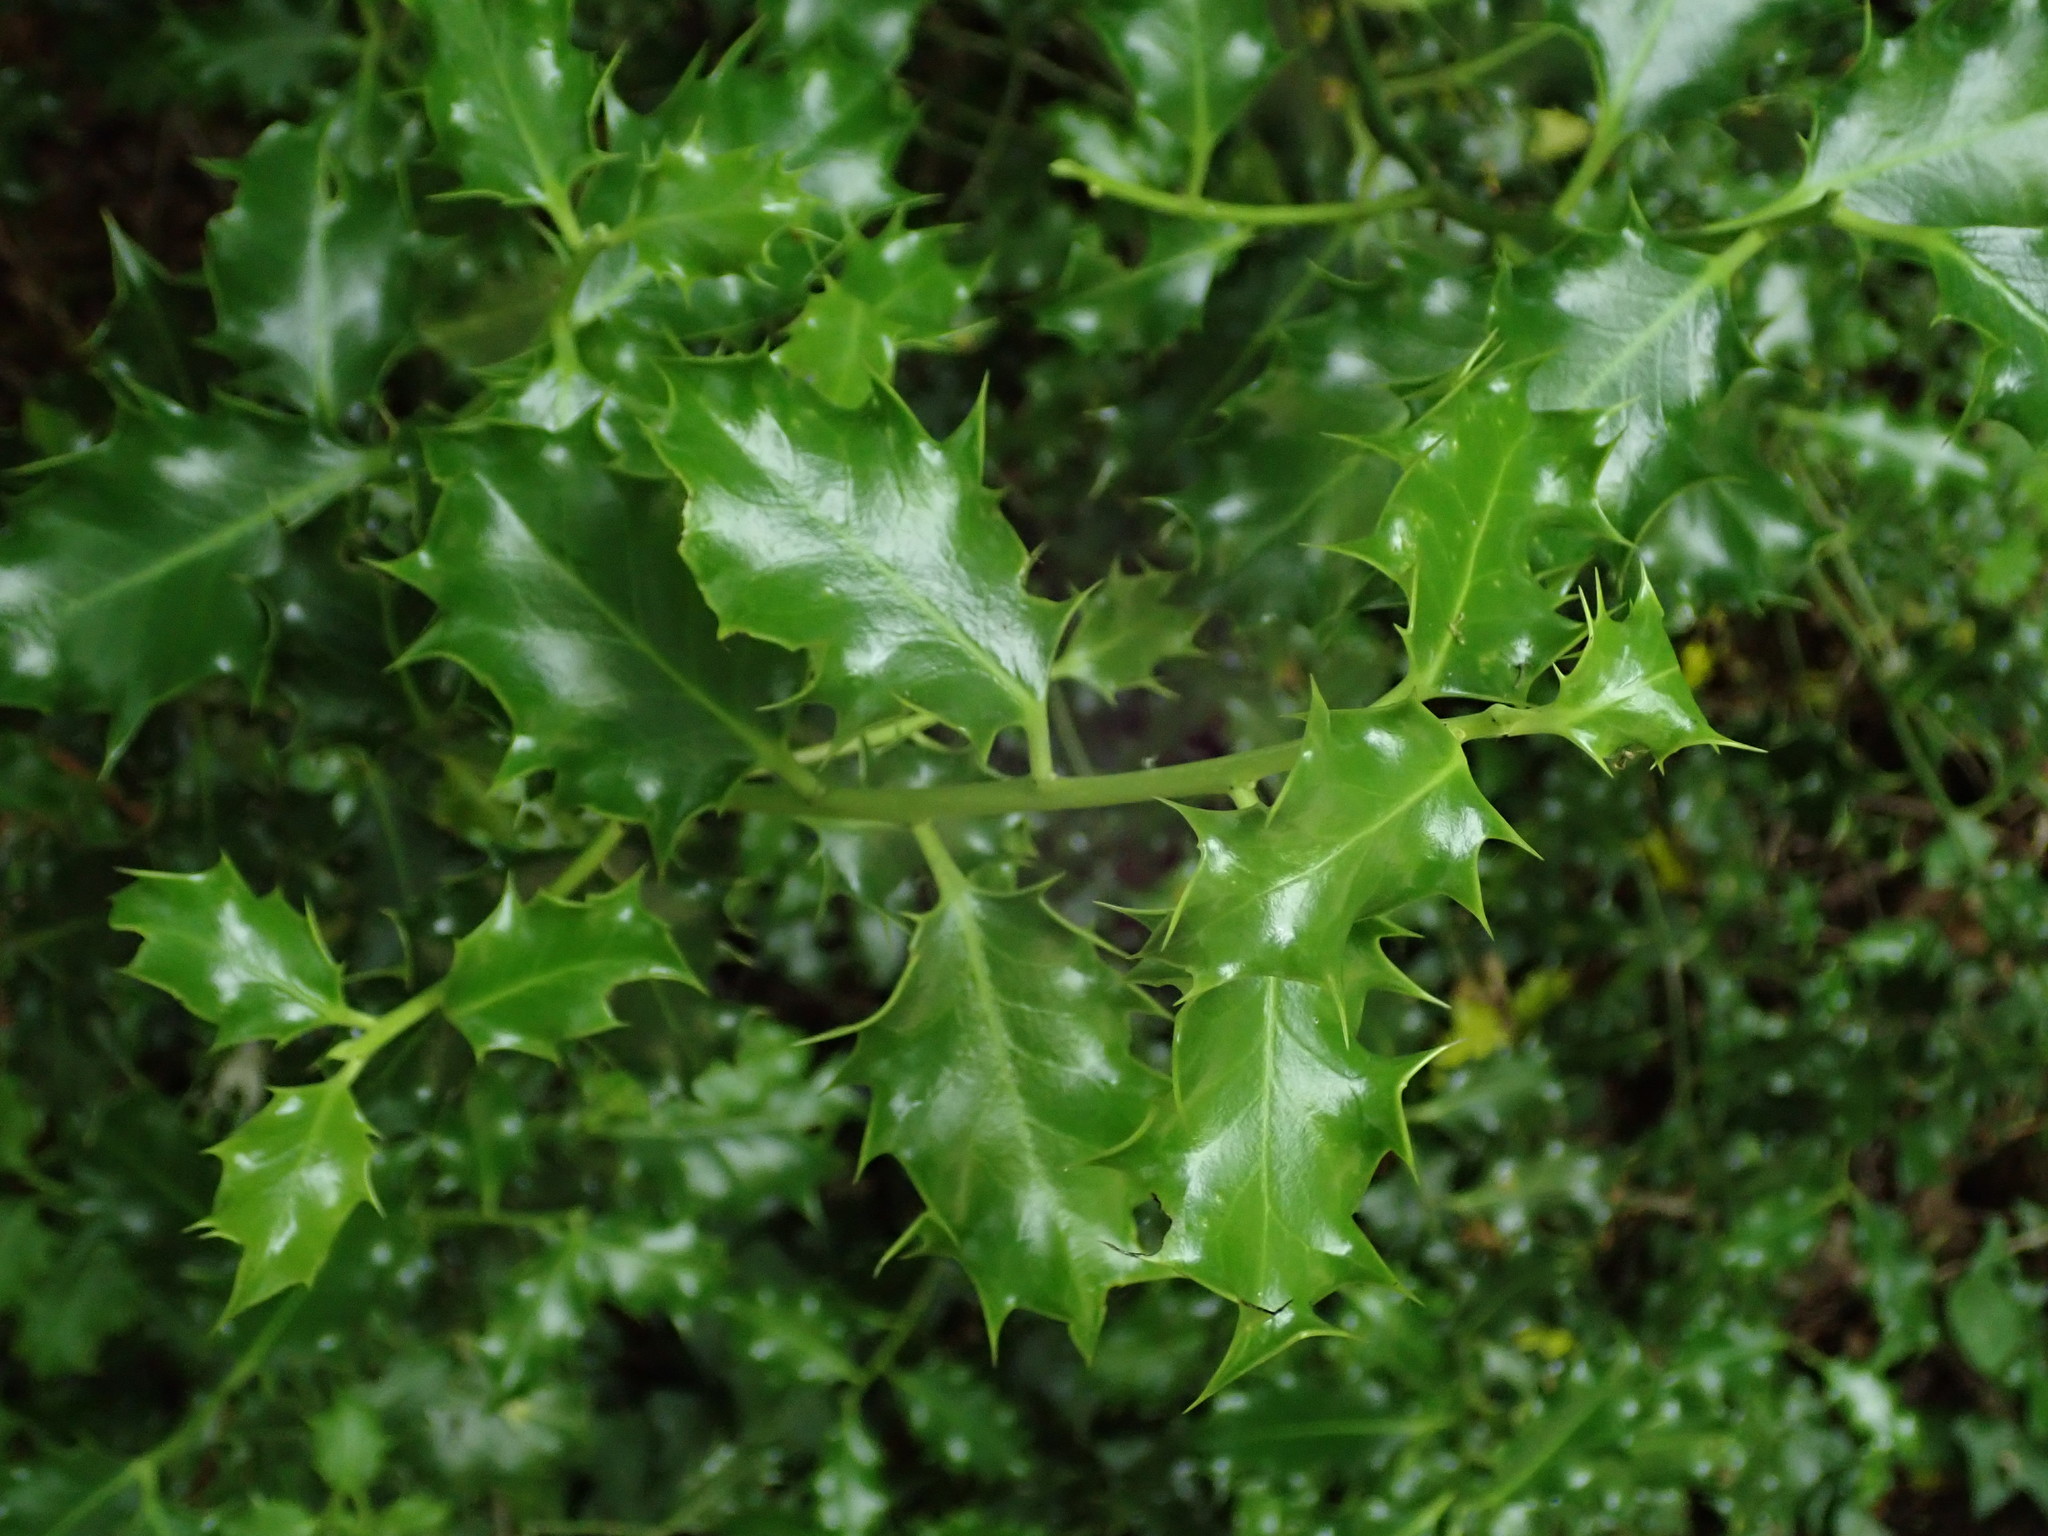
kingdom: Plantae
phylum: Tracheophyta
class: Magnoliopsida
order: Aquifoliales
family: Aquifoliaceae
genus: Ilex
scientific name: Ilex aquifolium
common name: English holly
